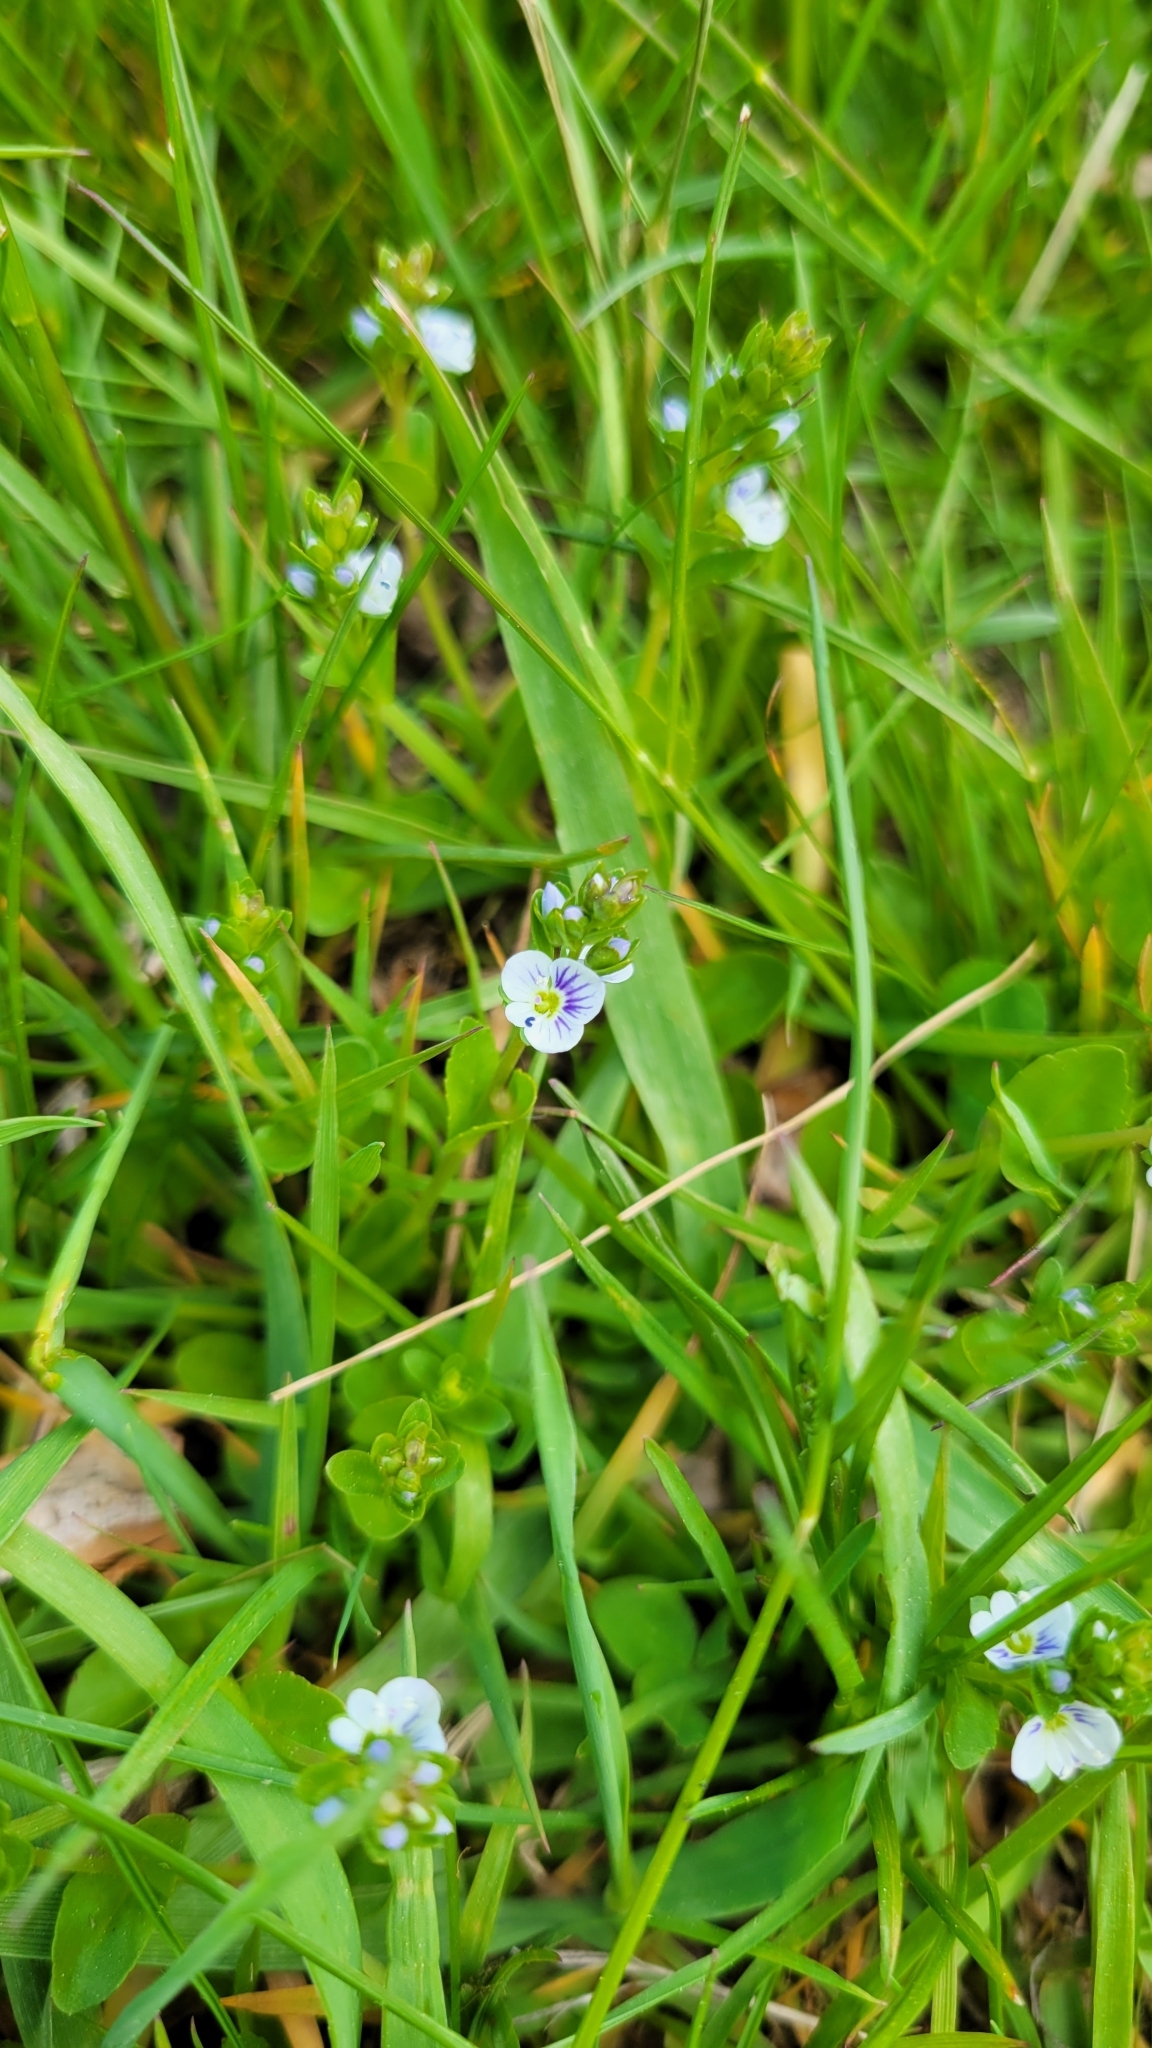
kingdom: Plantae
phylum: Tracheophyta
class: Magnoliopsida
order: Lamiales
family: Plantaginaceae
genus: Veronica
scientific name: Veronica serpyllifolia
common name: Thyme-leaved speedwell
